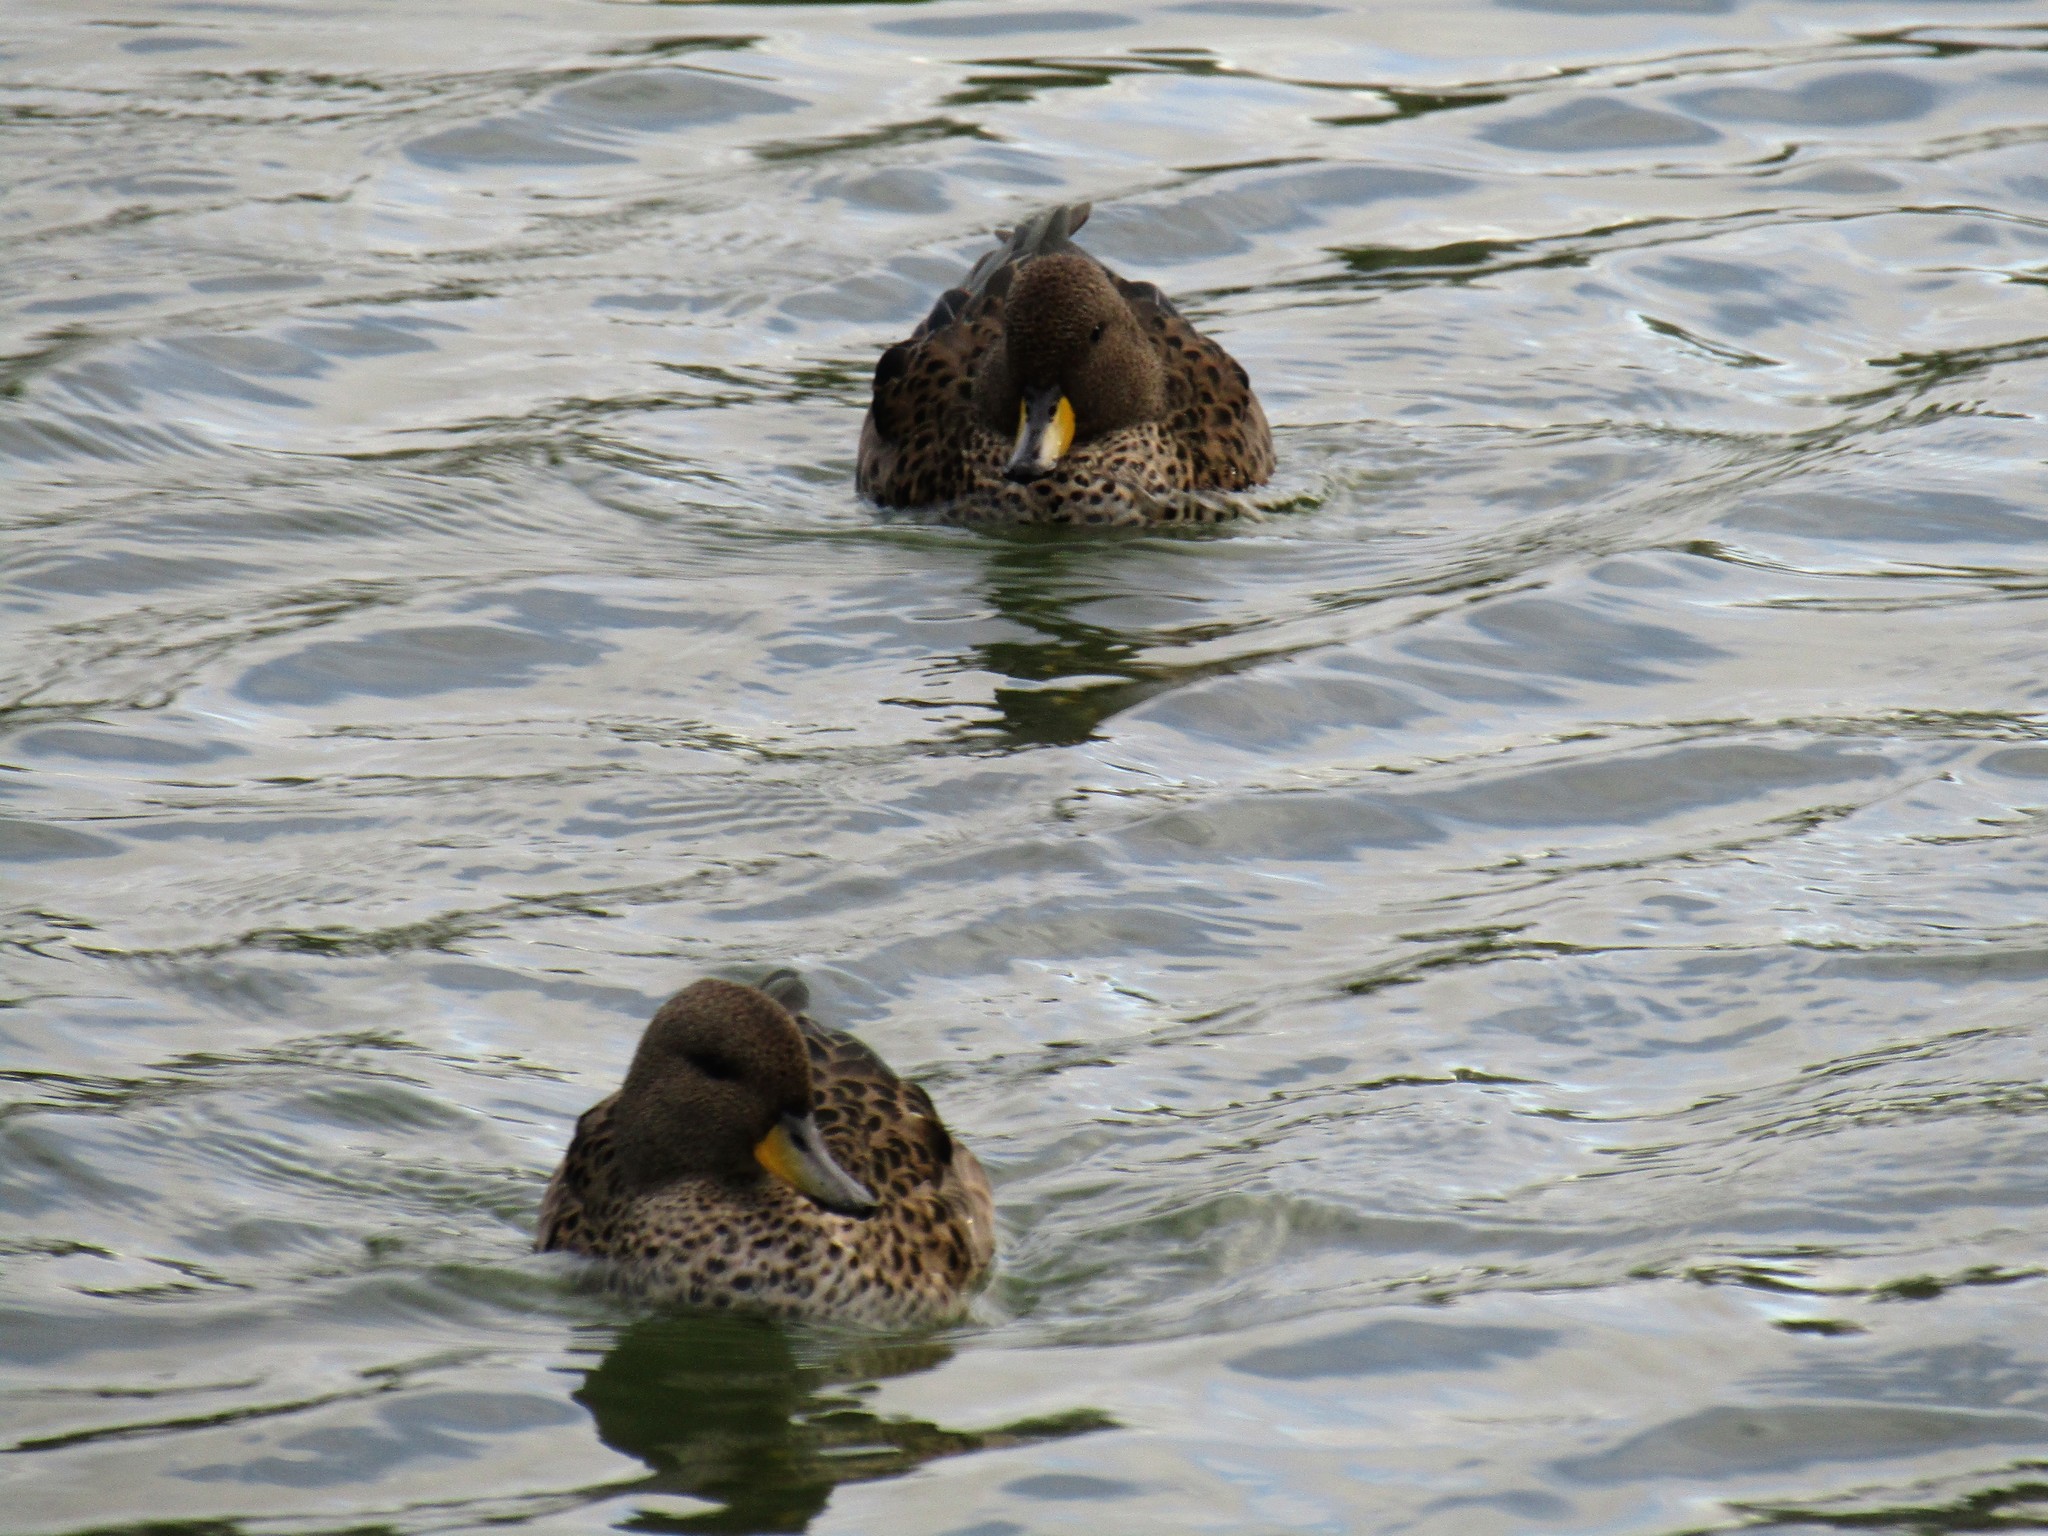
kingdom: Animalia
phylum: Chordata
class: Aves
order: Anseriformes
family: Anatidae
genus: Anas
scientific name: Anas flavirostris
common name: Yellow-billed teal
